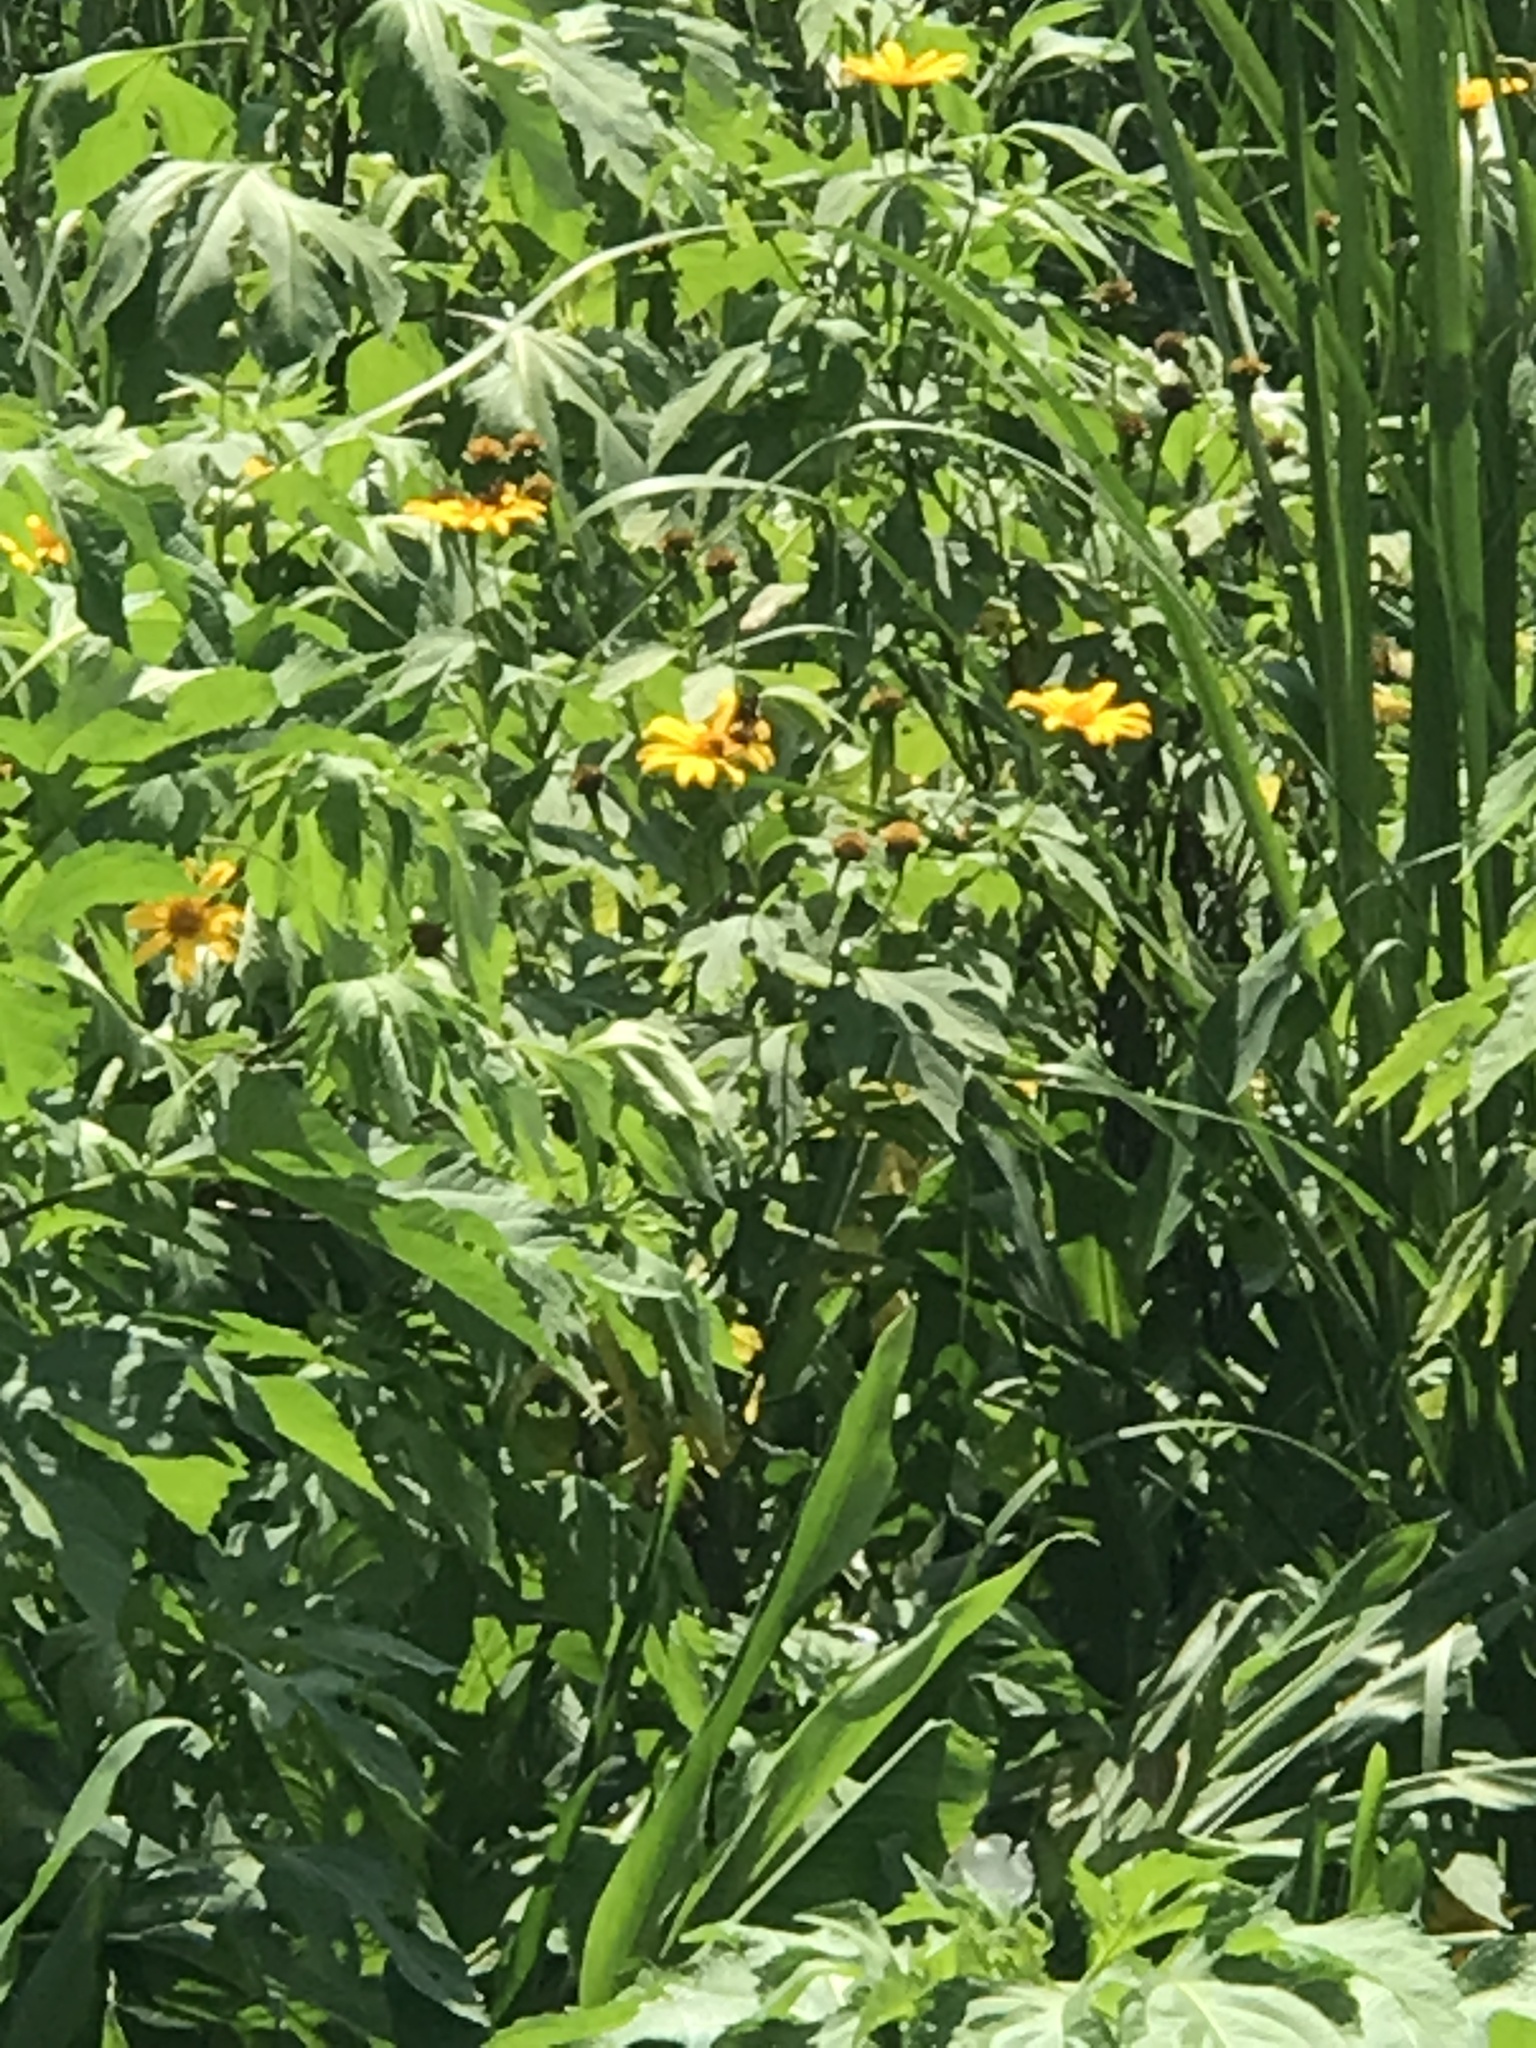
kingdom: Plantae
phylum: Tracheophyta
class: Magnoliopsida
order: Asterales
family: Asteraceae
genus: Tithonia
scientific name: Tithonia diversifolia
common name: Tree marigold
